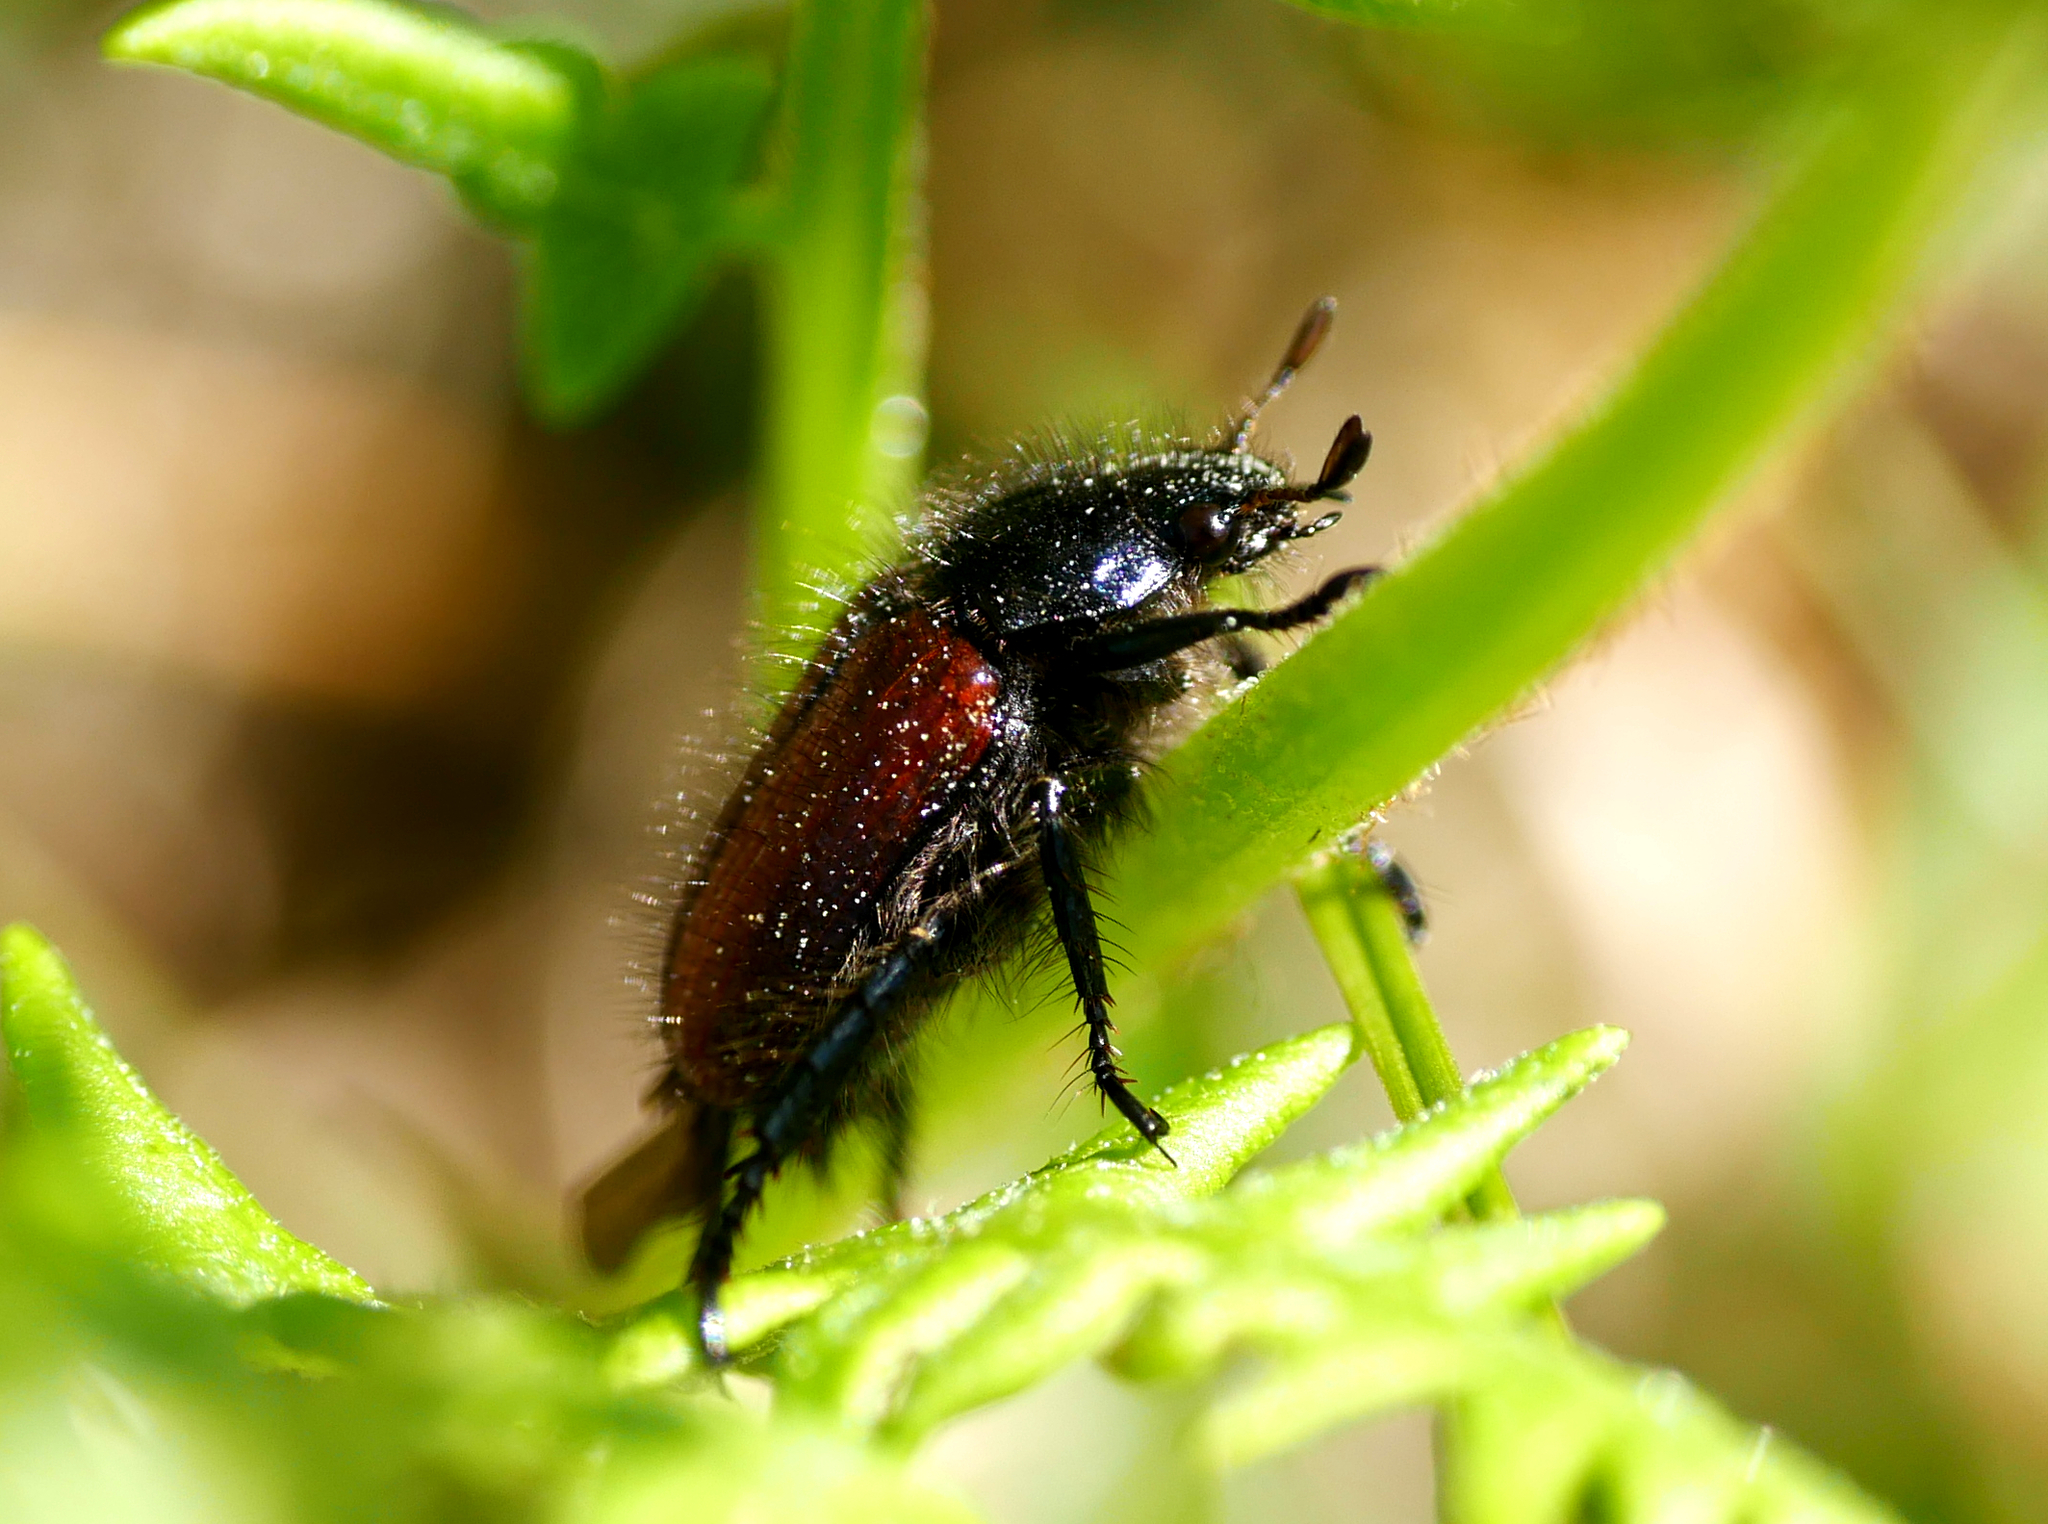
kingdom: Animalia
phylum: Arthropoda
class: Insecta
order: Coleoptera
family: Scarabaeidae
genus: Phyllopertha
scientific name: Phyllopertha horticola
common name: Garden chafer
